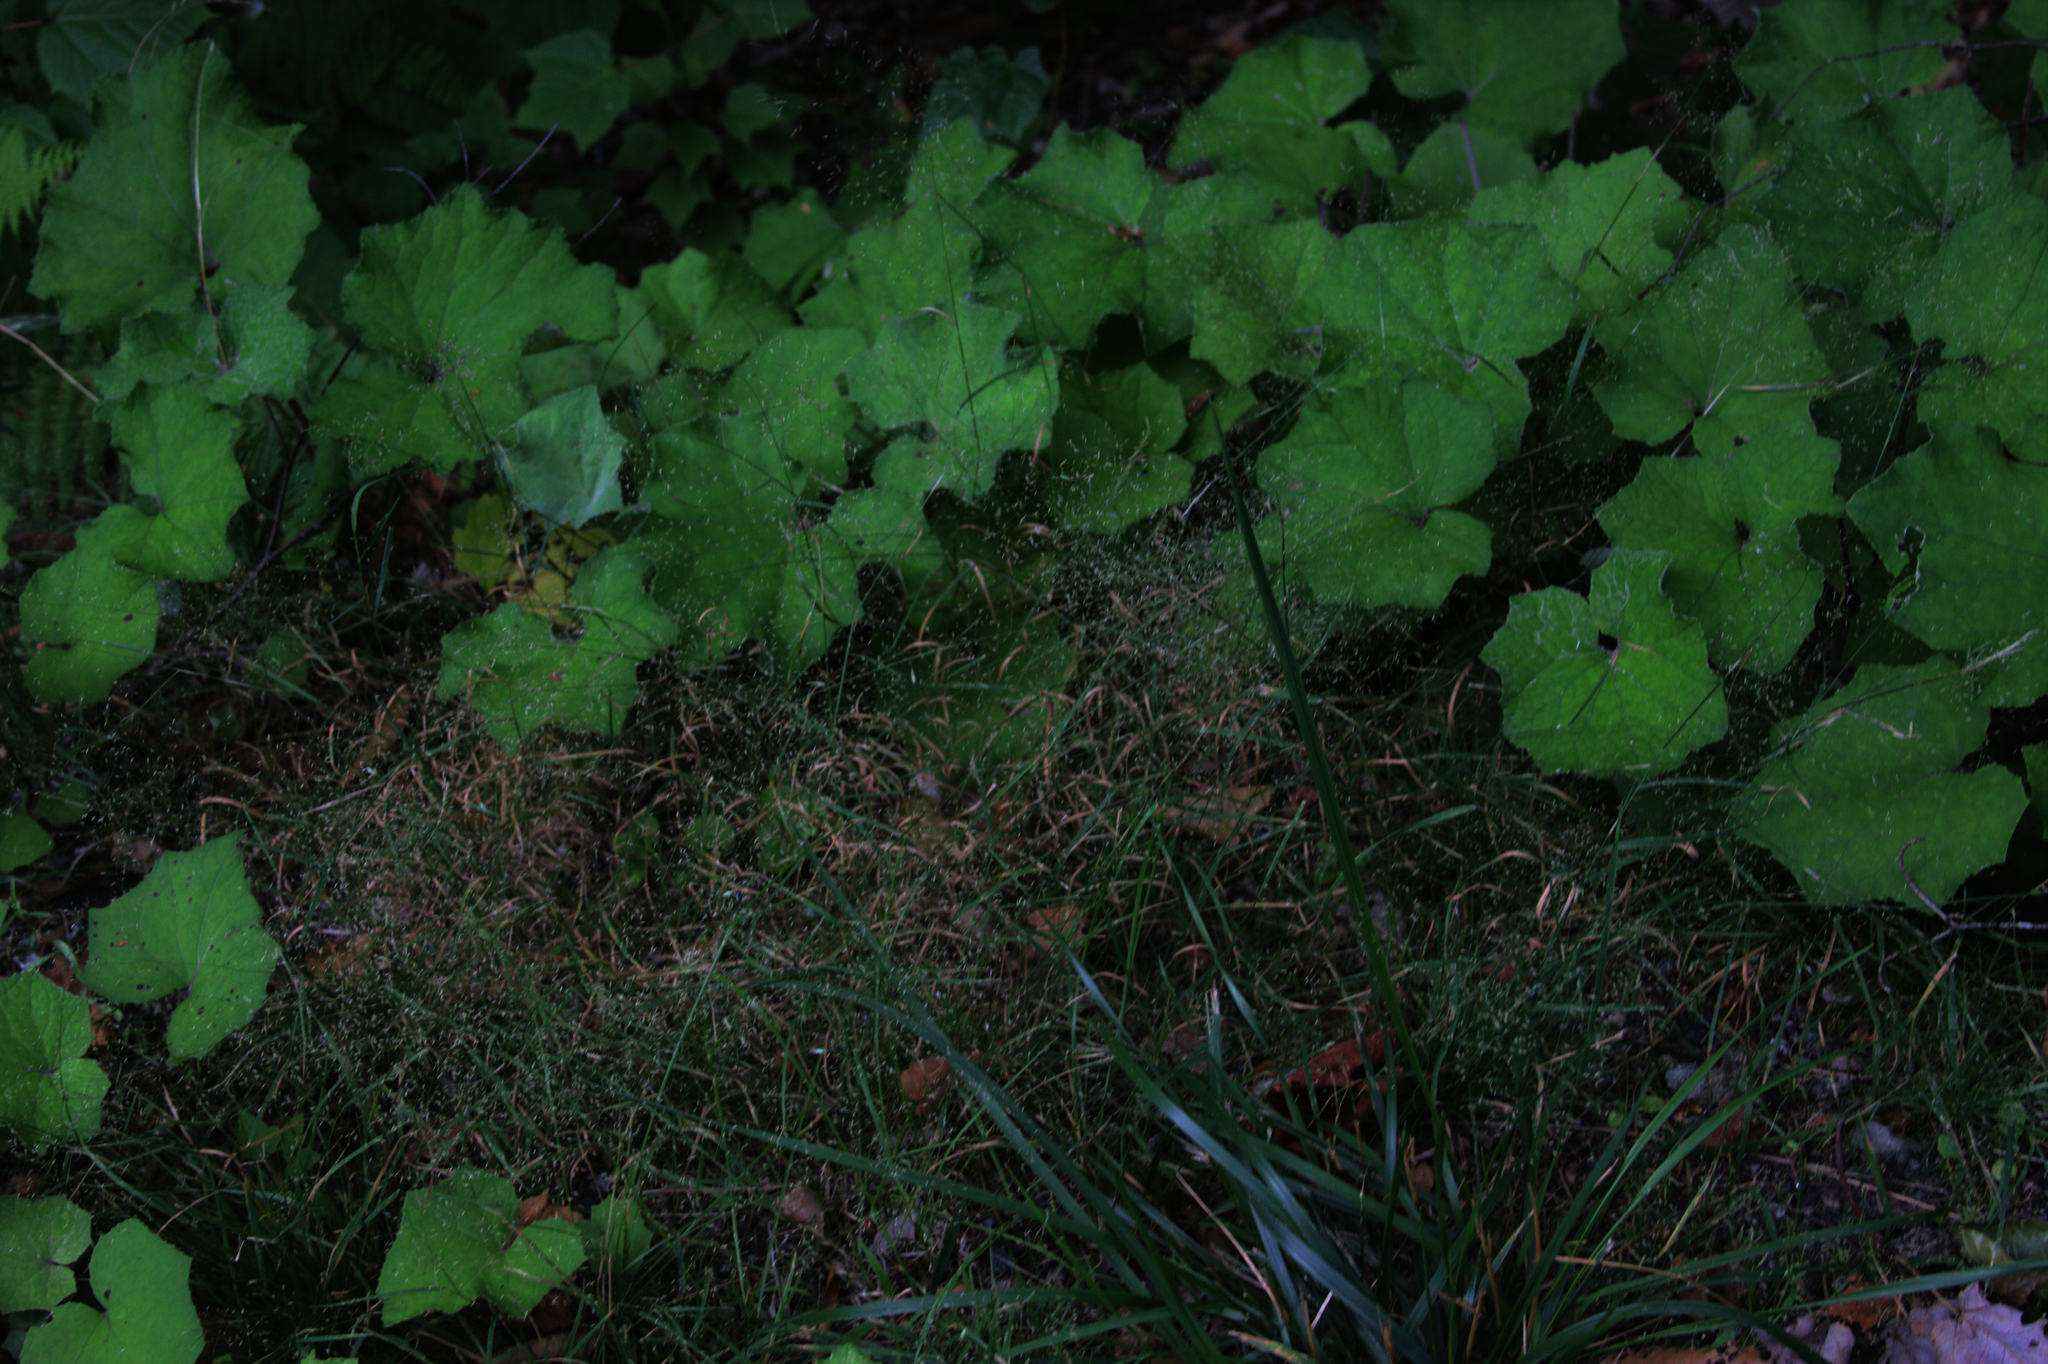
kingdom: Plantae
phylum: Tracheophyta
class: Magnoliopsida
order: Asterales
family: Asteraceae
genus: Tussilago
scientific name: Tussilago farfara
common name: Coltsfoot
